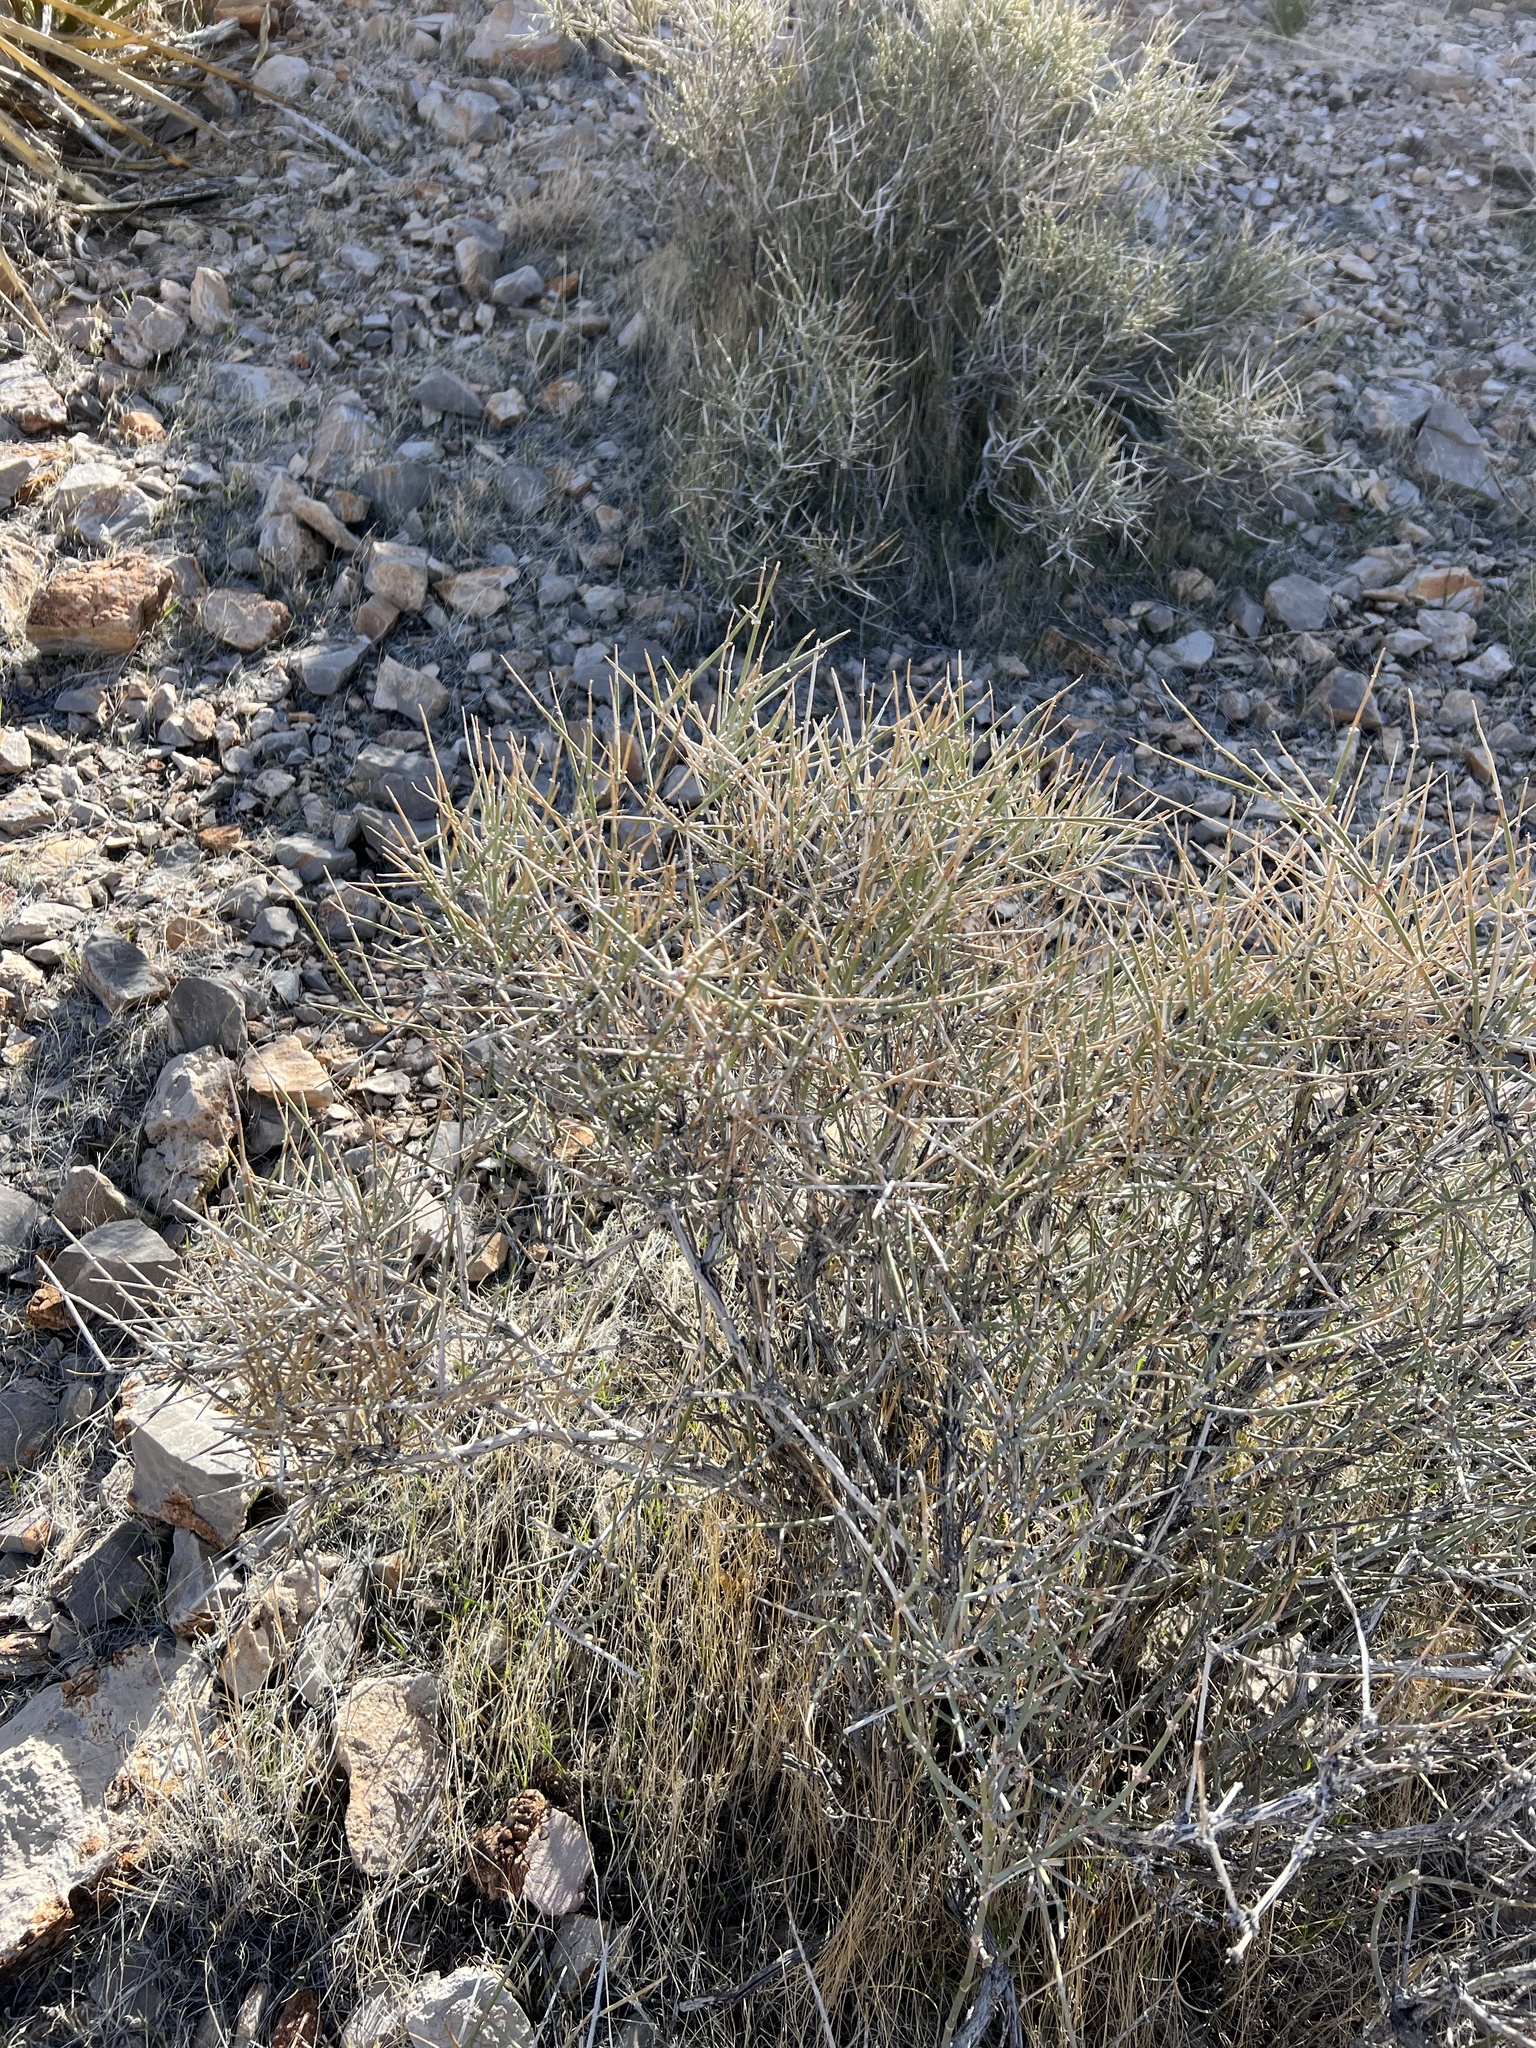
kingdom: Plantae
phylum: Tracheophyta
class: Gnetopsida
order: Ephedrales
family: Ephedraceae
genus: Ephedra
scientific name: Ephedra nevadensis
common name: Gray ephedra
